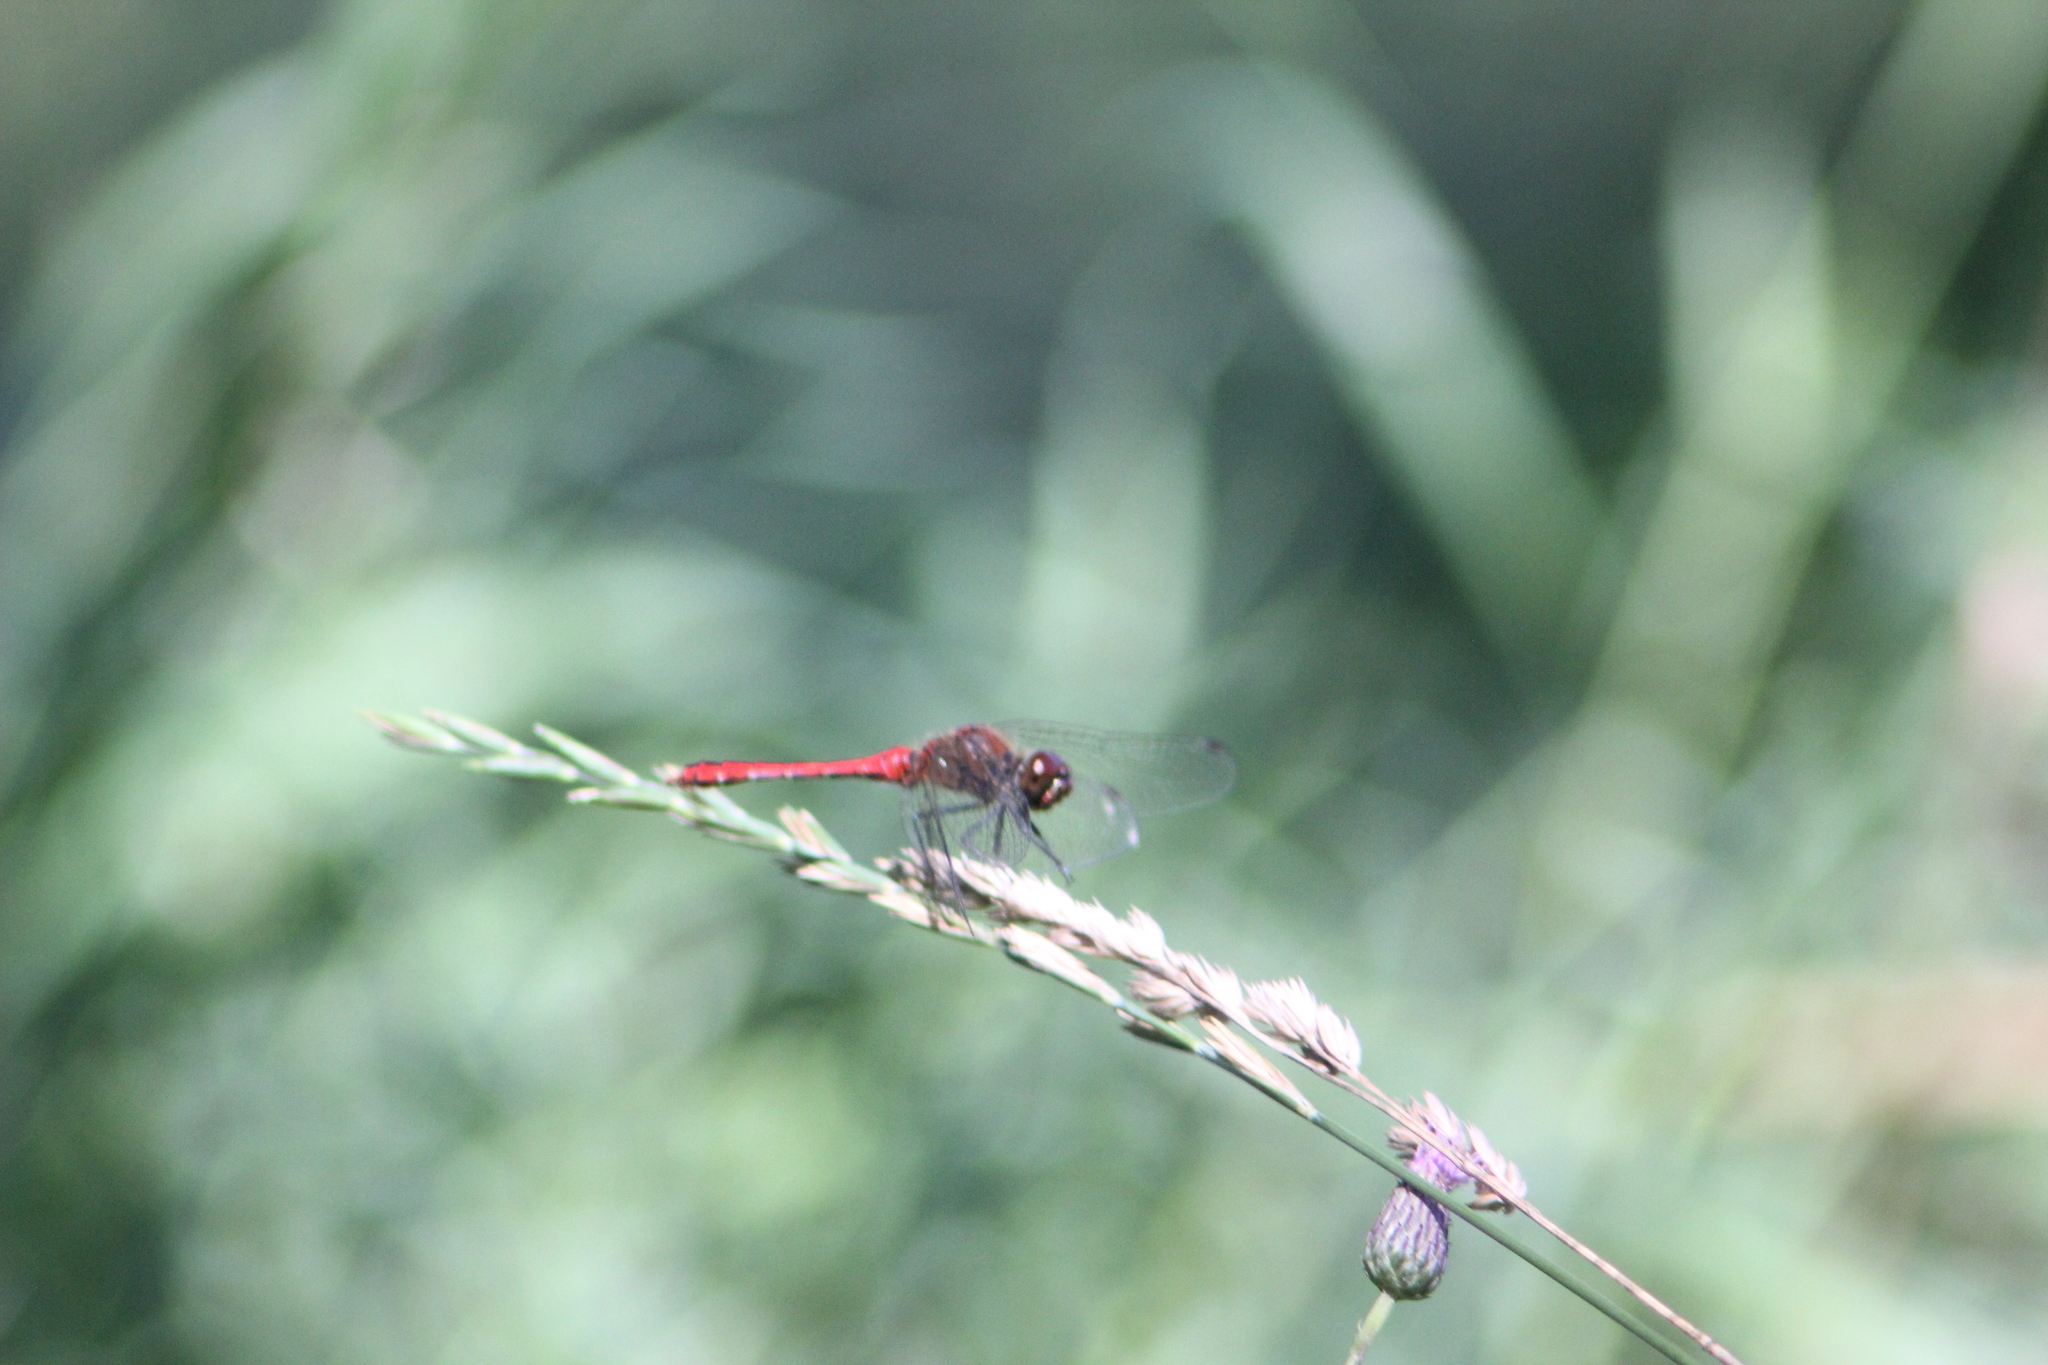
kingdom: Animalia
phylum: Arthropoda
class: Insecta
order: Odonata
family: Libellulidae
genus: Sympetrum
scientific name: Sympetrum sanguineum
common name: Ruddy darter
